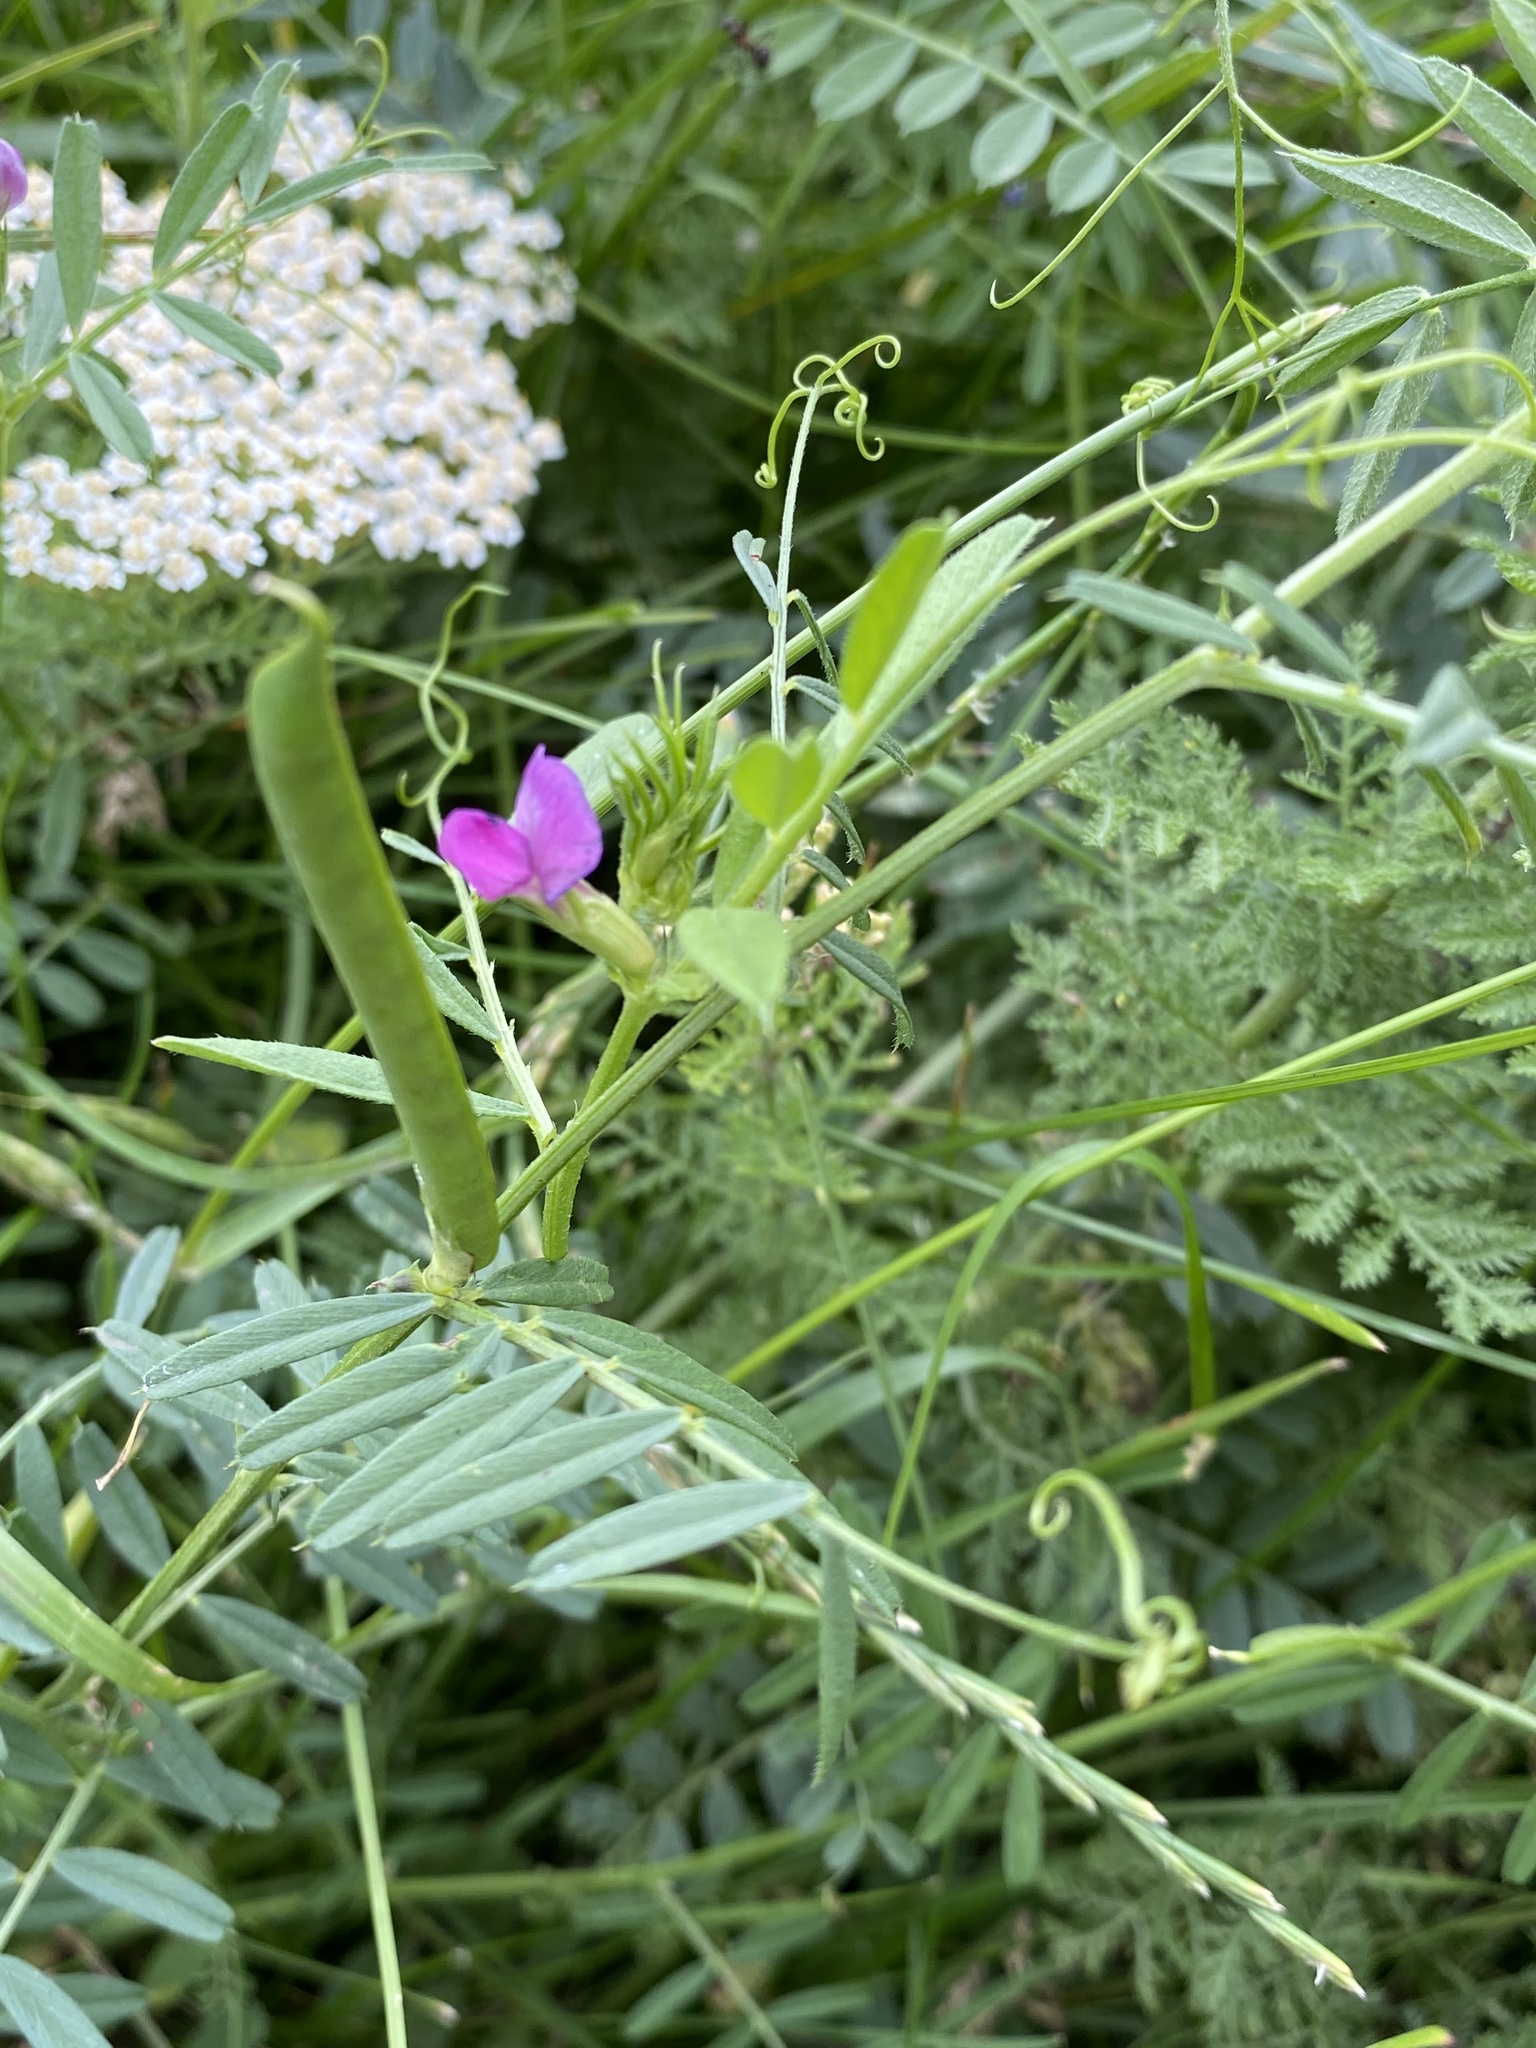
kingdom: Plantae
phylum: Tracheophyta
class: Magnoliopsida
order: Fabales
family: Fabaceae
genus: Vicia
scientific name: Vicia sativa
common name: Garden vetch
